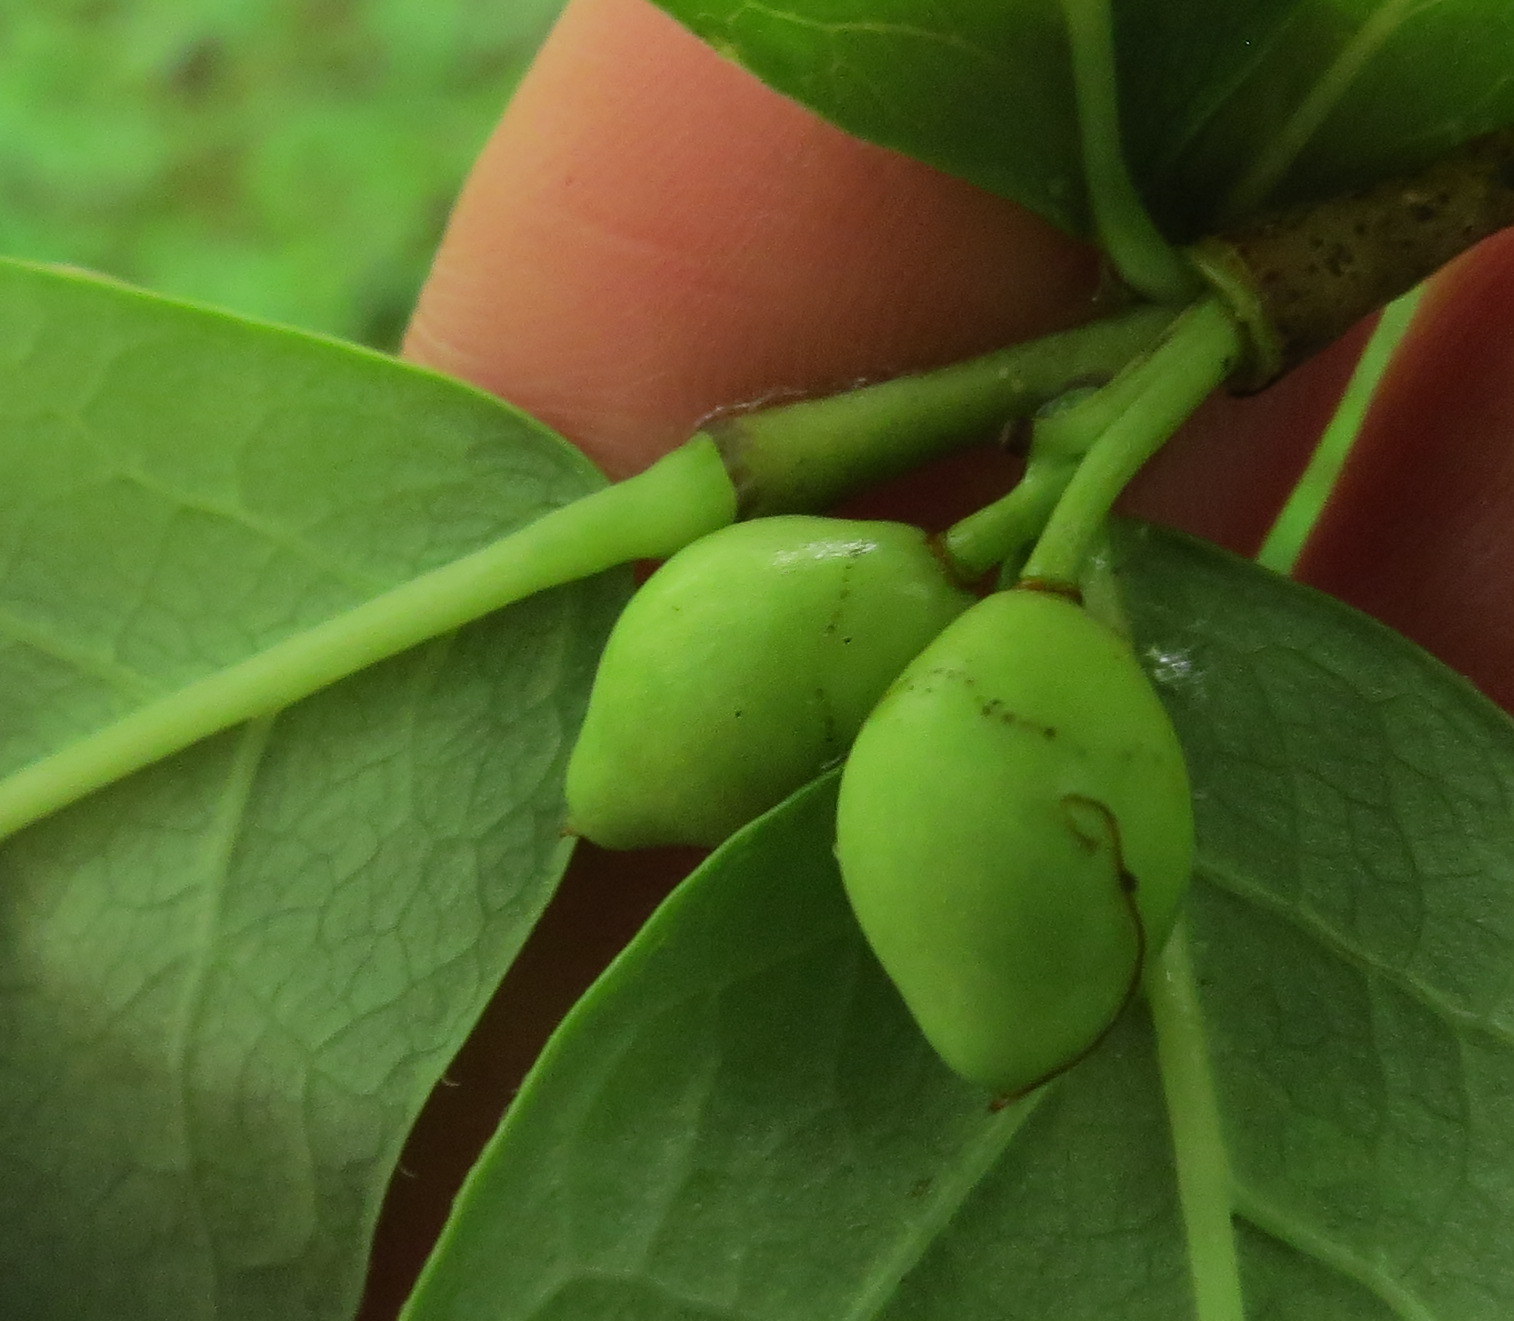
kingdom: Plantae
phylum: Tracheophyta
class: Magnoliopsida
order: Malvales
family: Thymelaeaceae
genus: Dirca
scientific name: Dirca palustris
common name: Leatherwood
